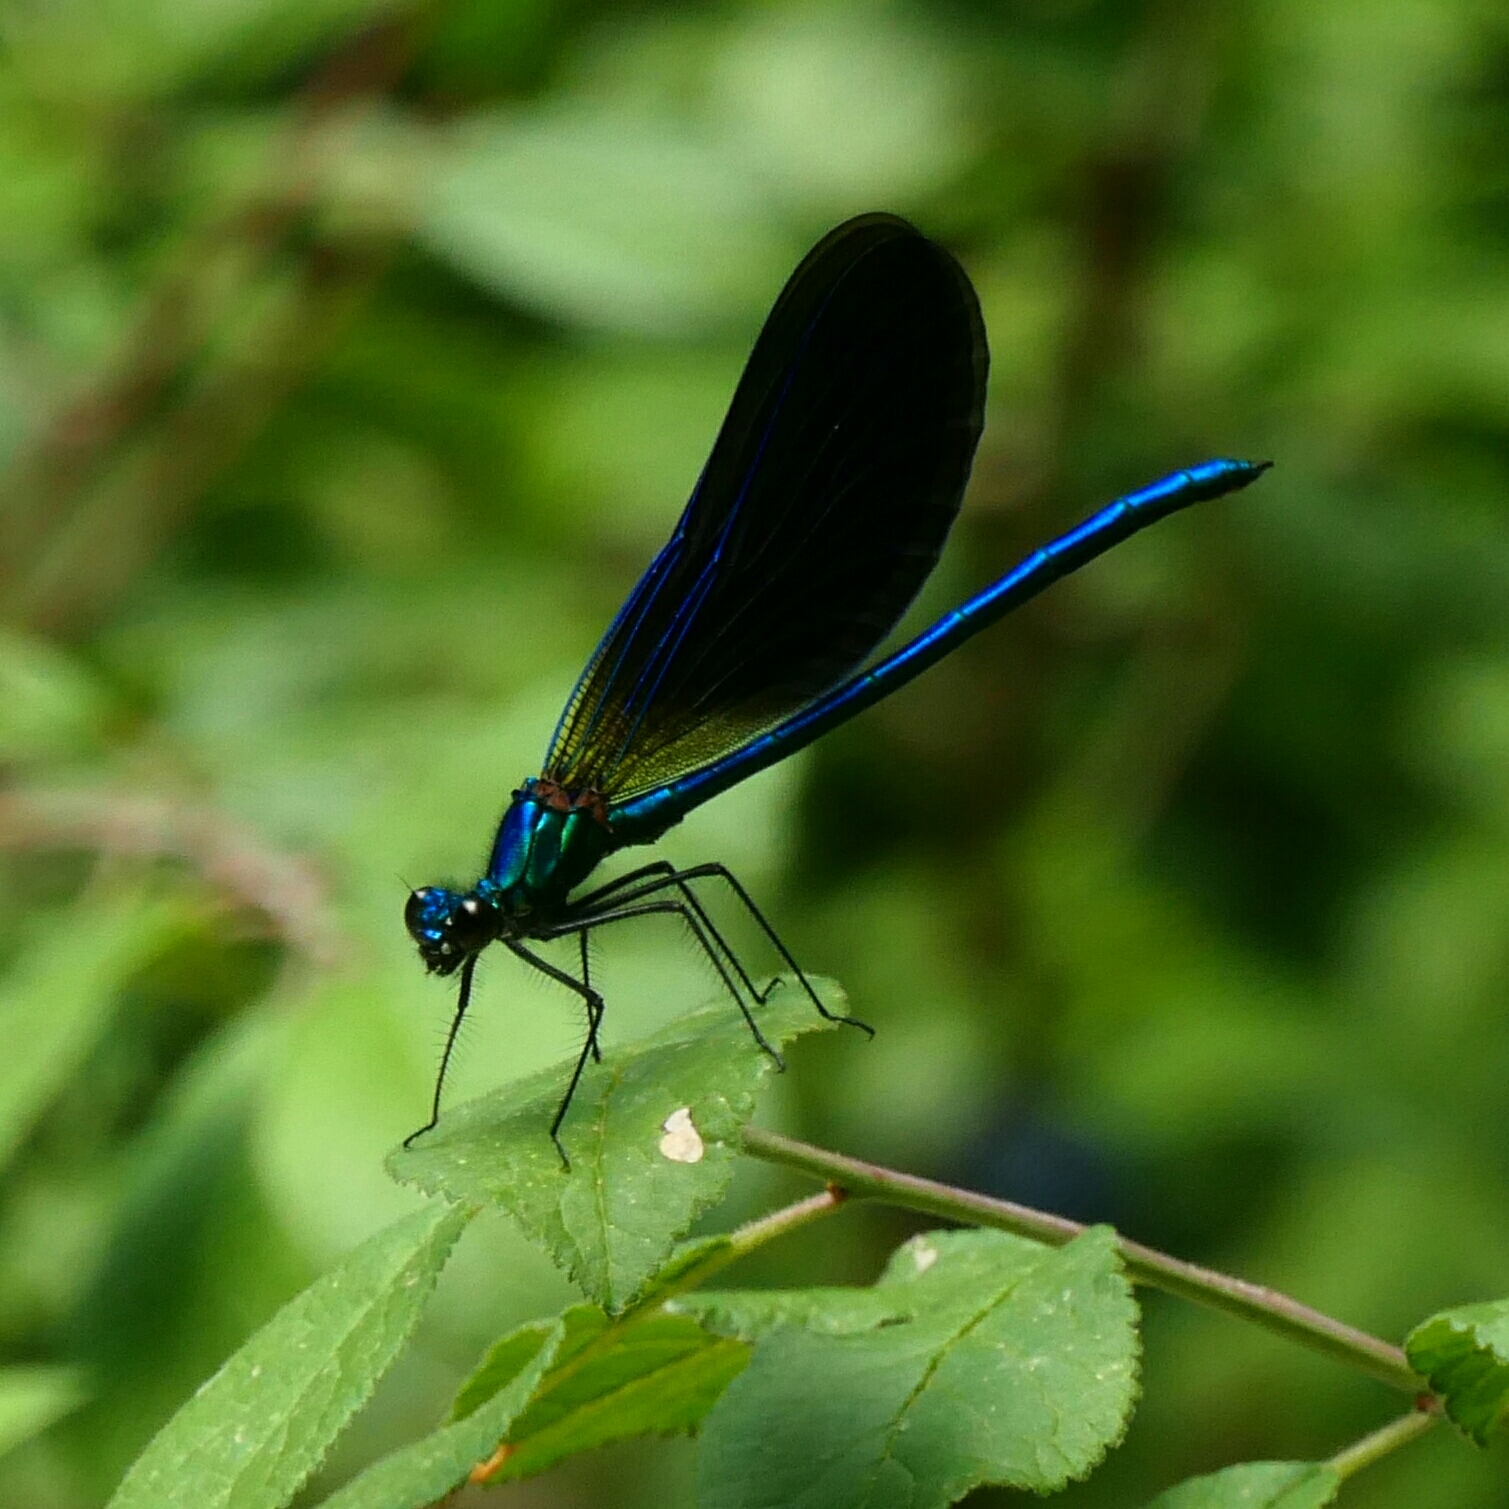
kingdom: Animalia
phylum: Arthropoda
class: Insecta
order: Odonata
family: Calopterygidae
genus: Calopteryx
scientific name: Calopteryx virgo
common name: Beautiful demoiselle
